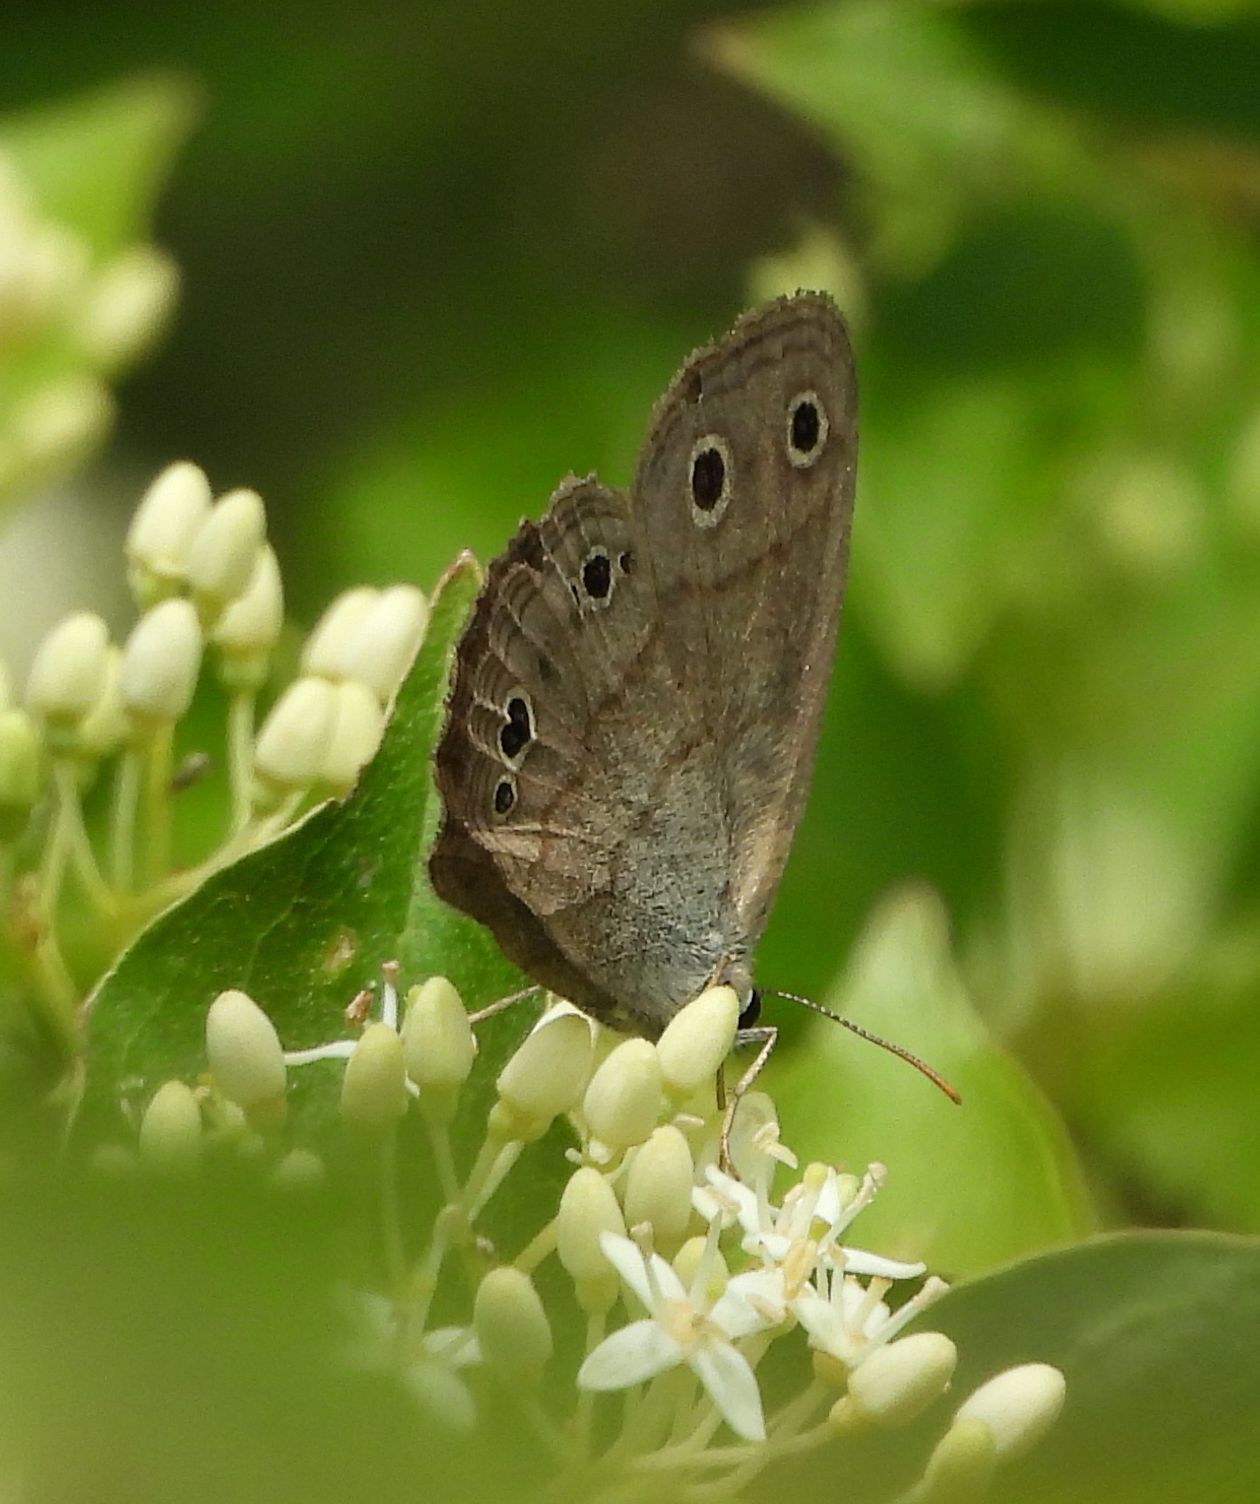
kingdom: Animalia
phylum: Arthropoda
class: Insecta
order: Lepidoptera
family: Nymphalidae
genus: Euptychia
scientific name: Euptychia cymela
